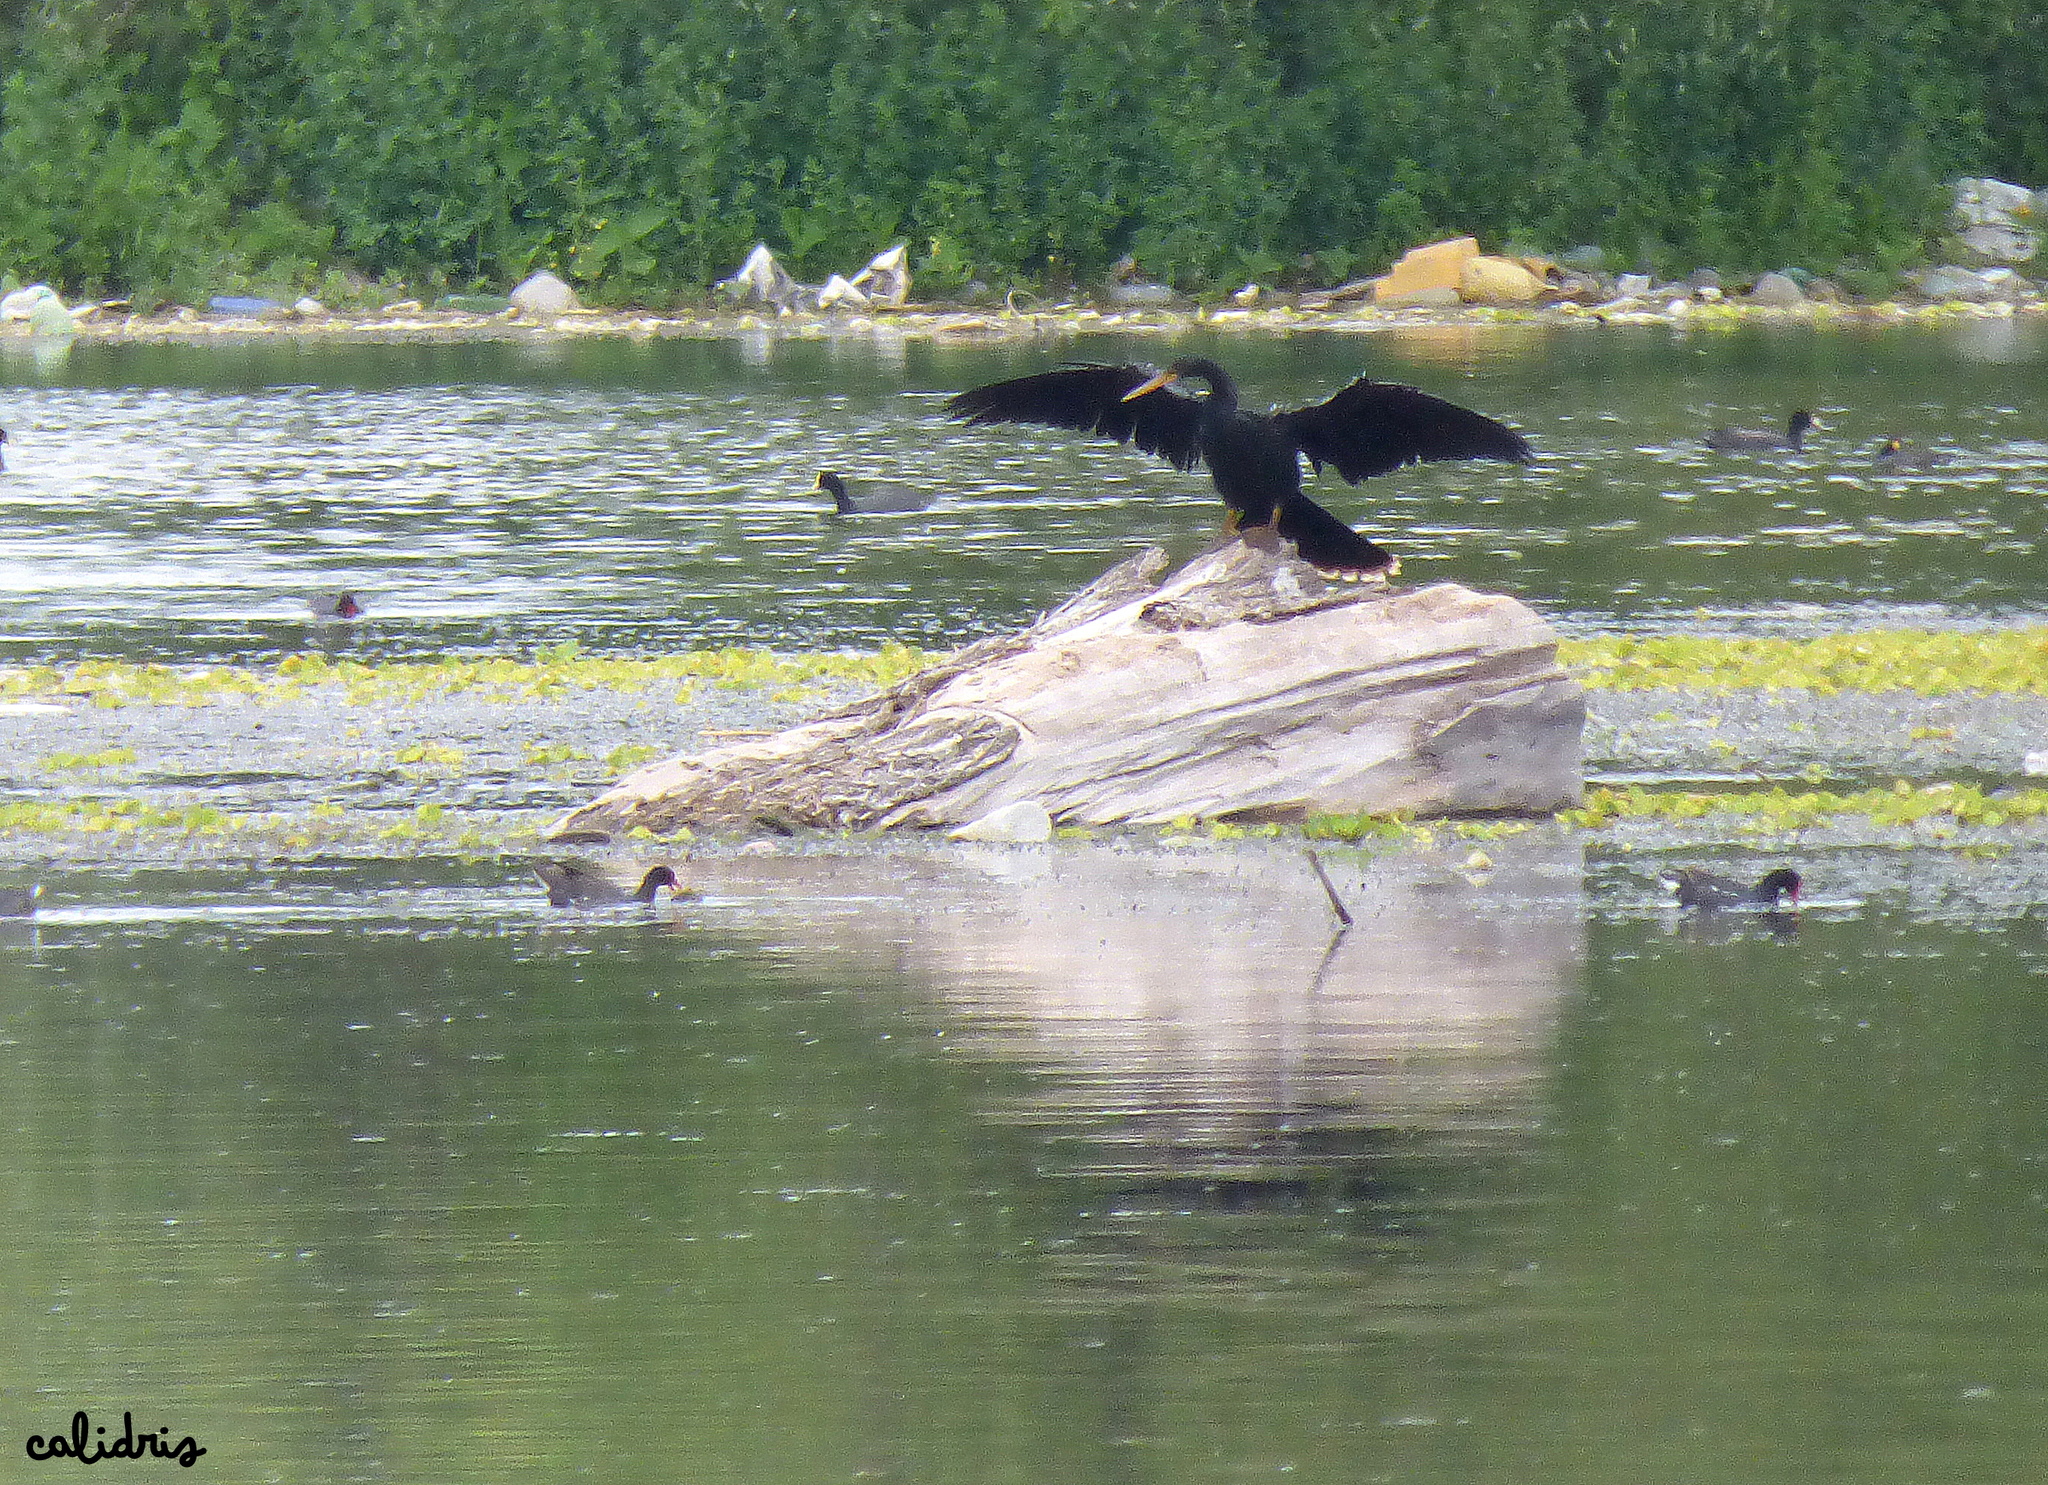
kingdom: Animalia
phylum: Chordata
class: Aves
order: Suliformes
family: Anhingidae
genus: Anhinga
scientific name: Anhinga anhinga
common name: Anhinga
